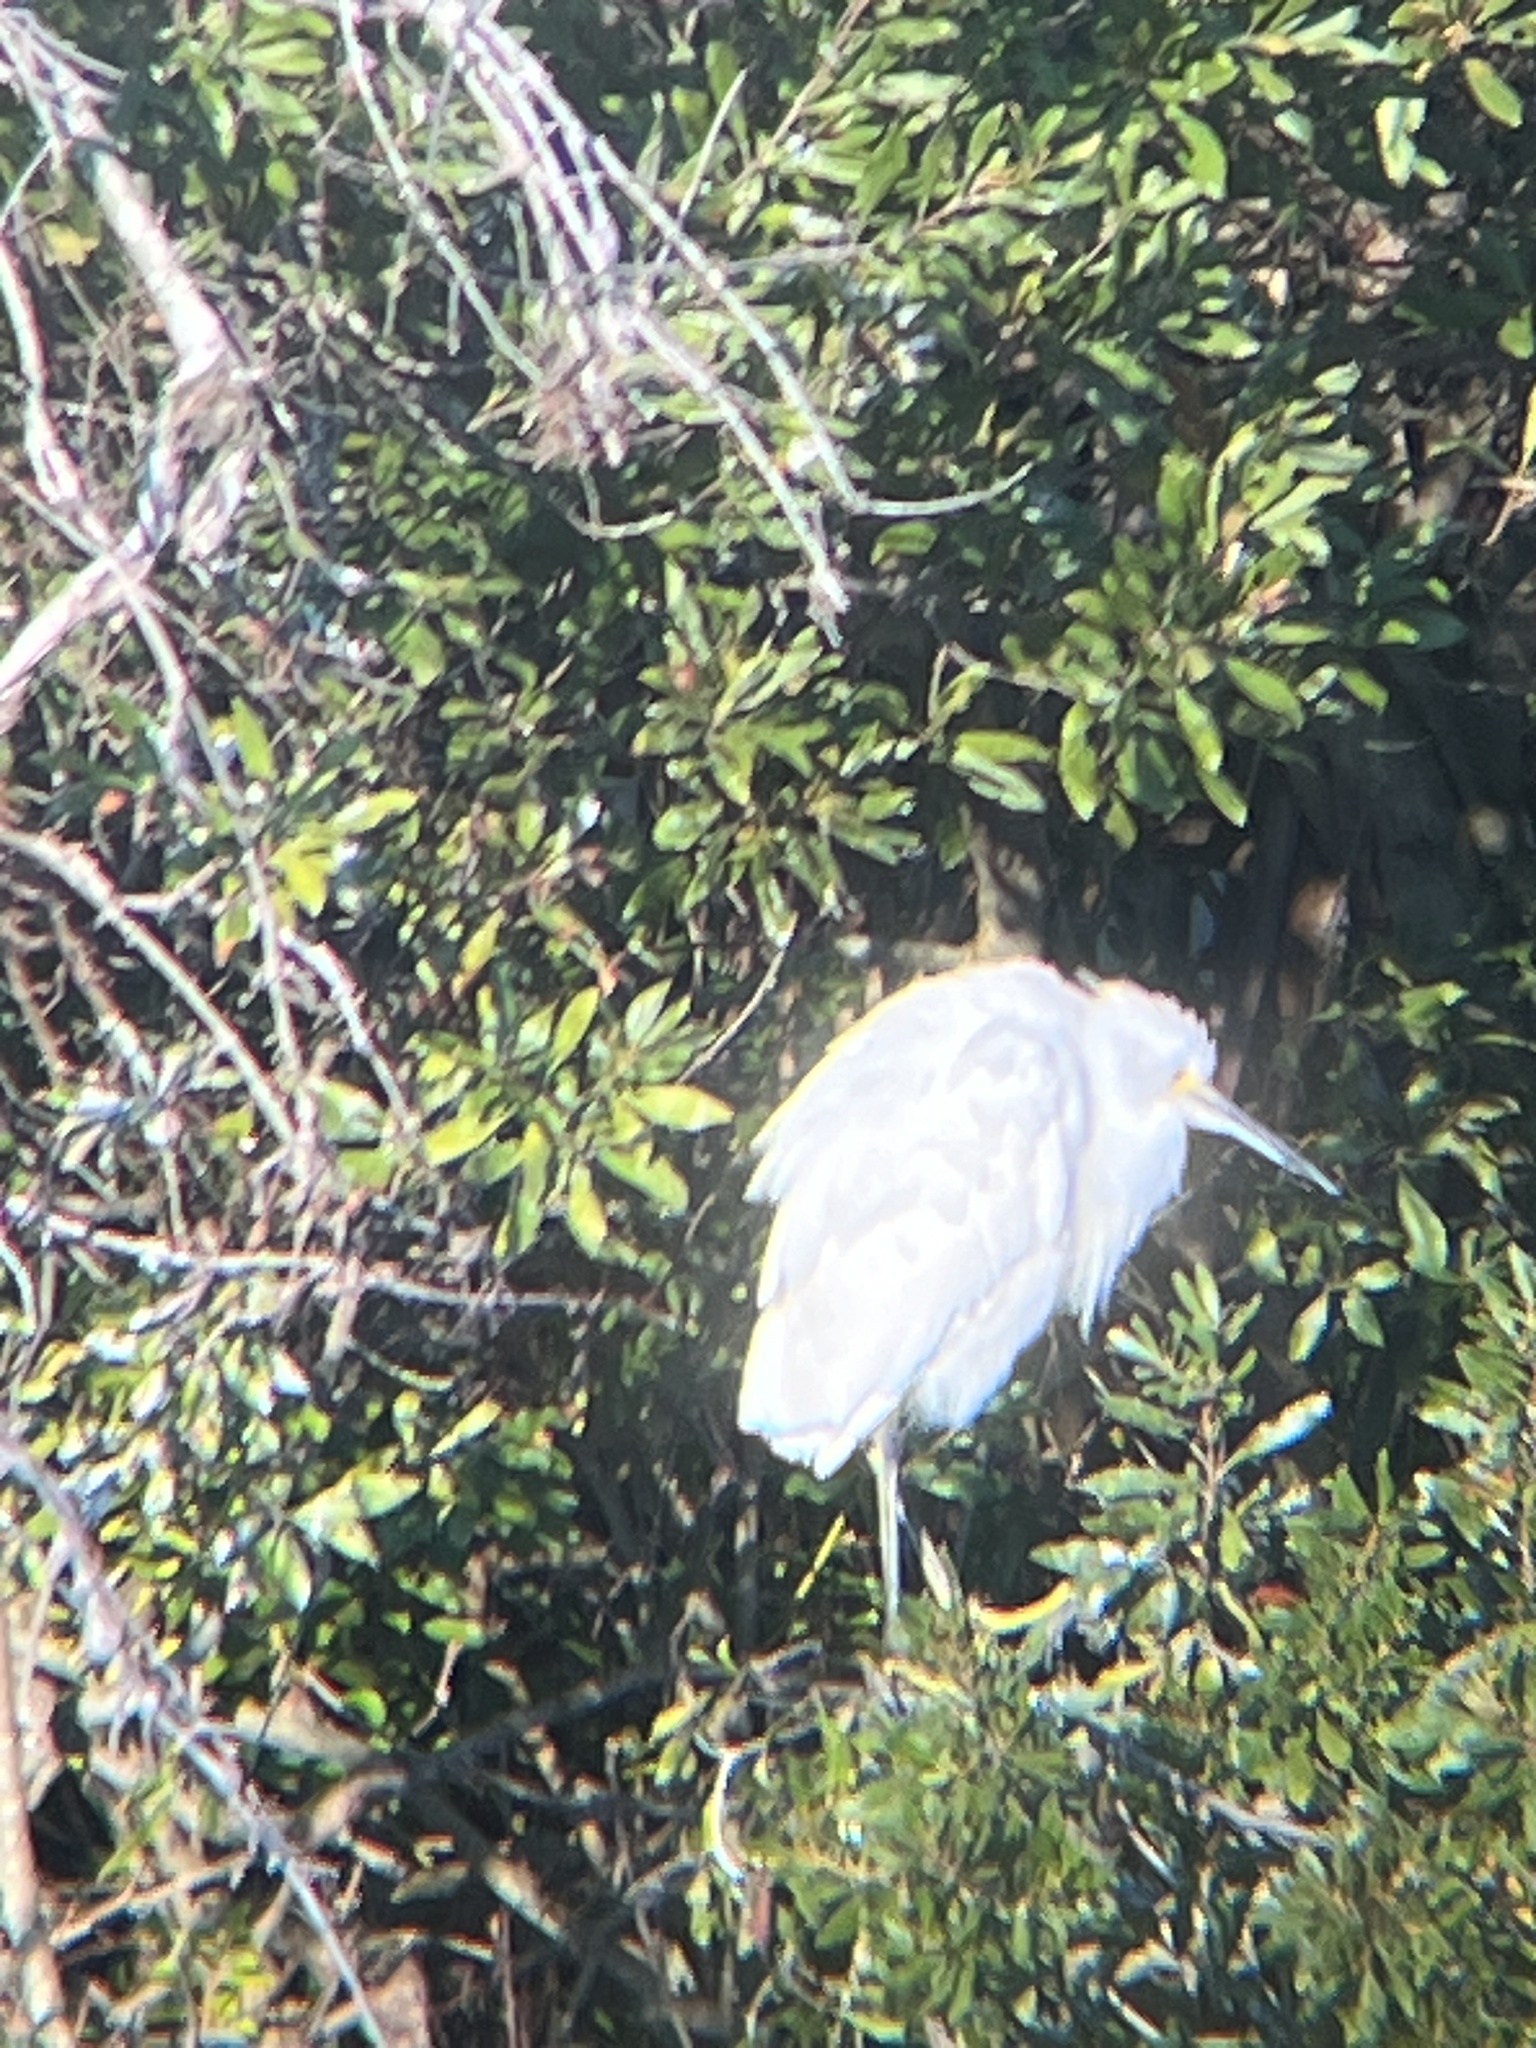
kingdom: Animalia
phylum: Chordata
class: Aves
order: Pelecaniformes
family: Ardeidae
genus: Egretta
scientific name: Egretta thula
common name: Snowy egret
